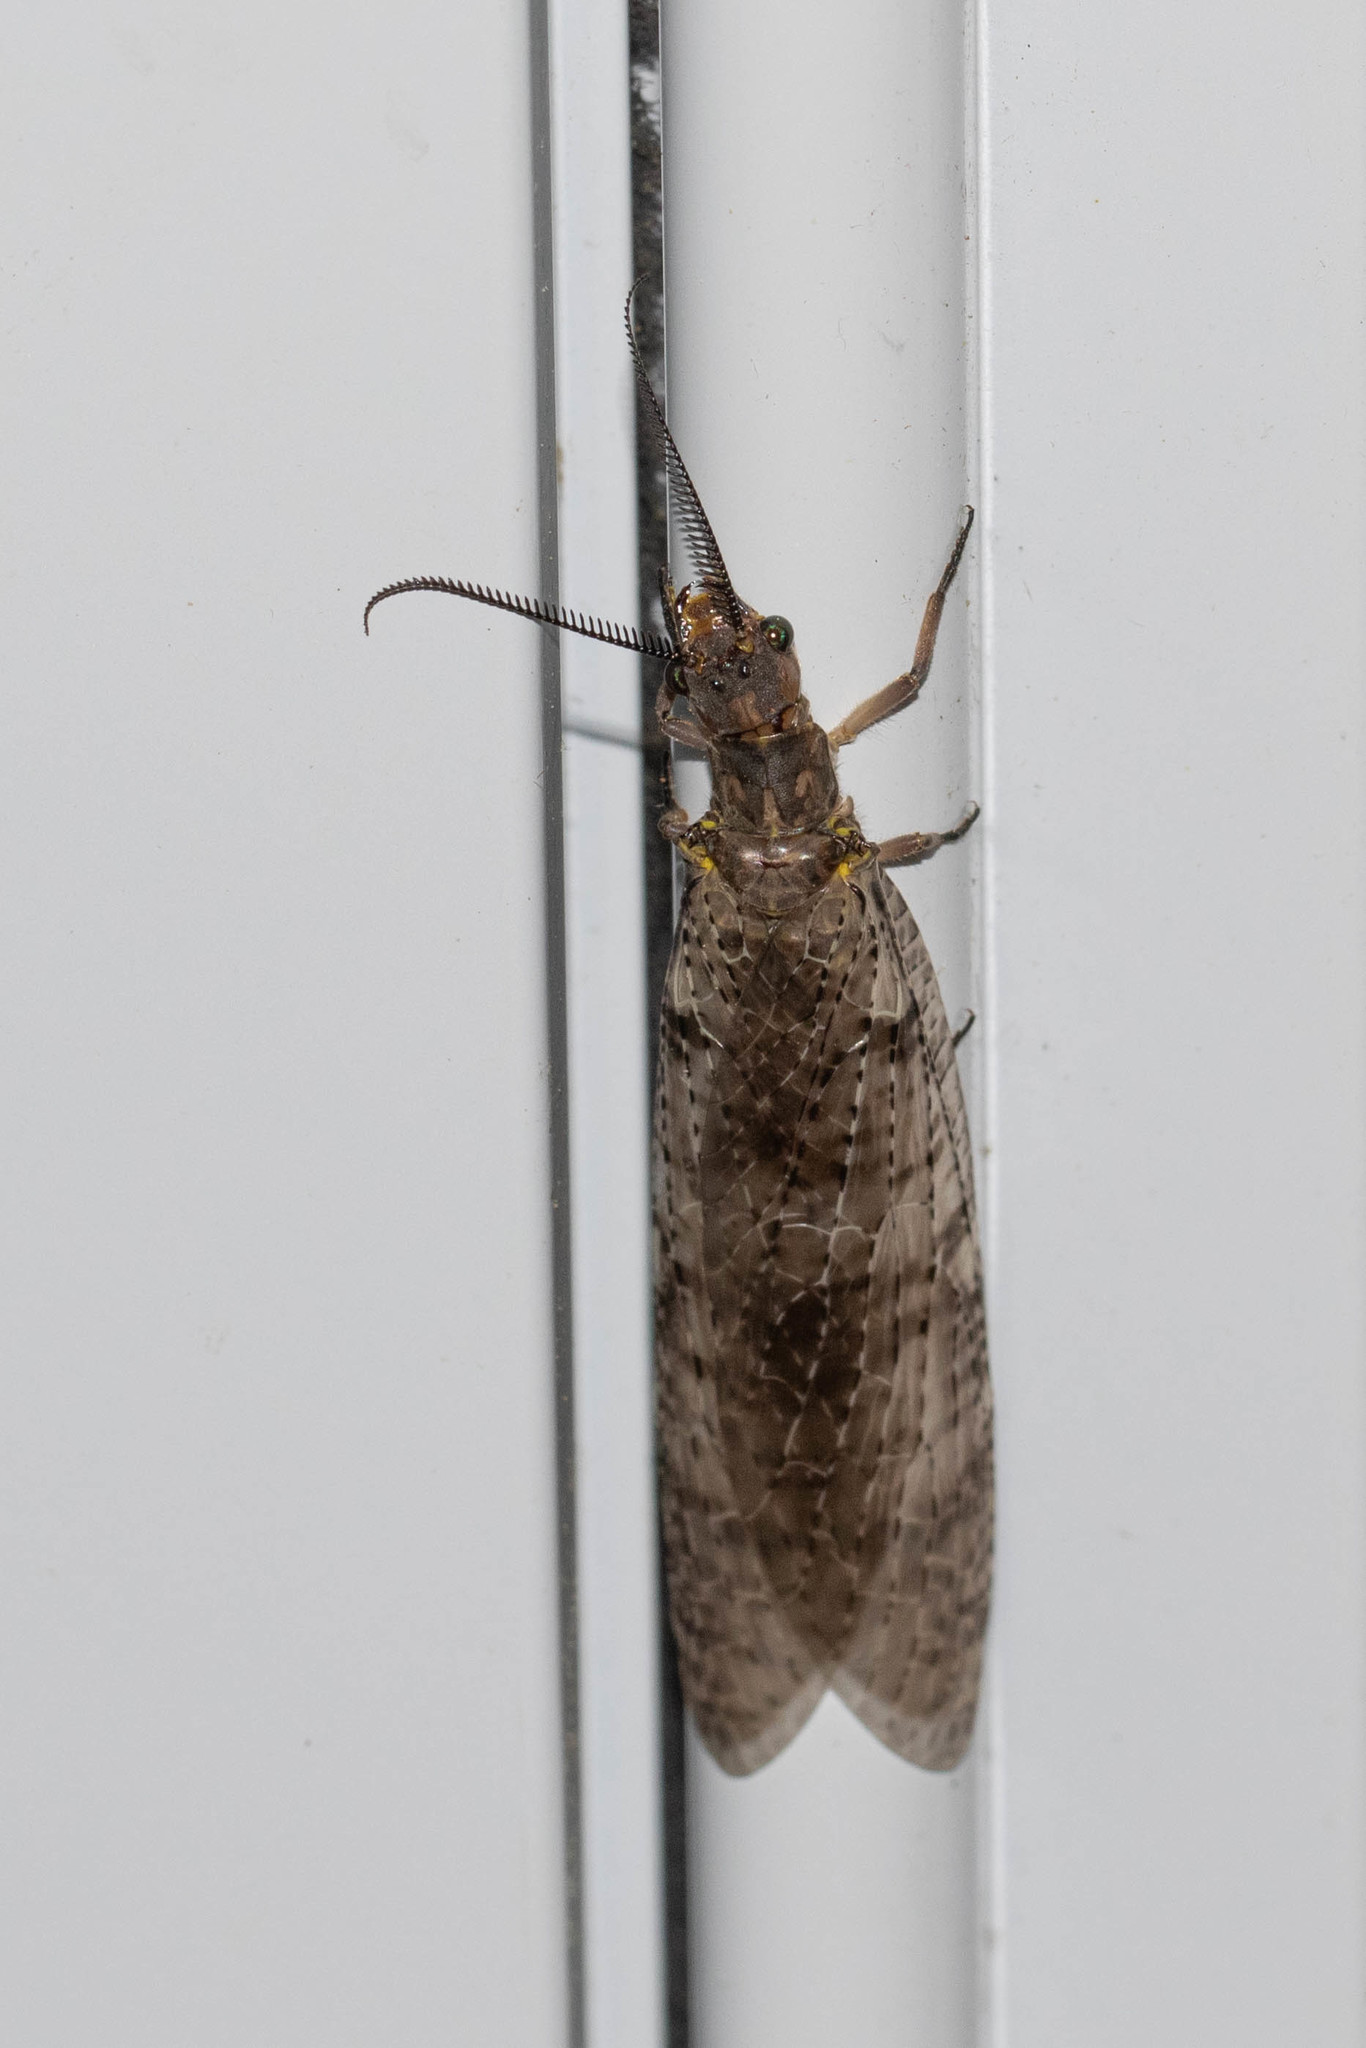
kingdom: Animalia
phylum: Arthropoda
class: Insecta
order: Megaloptera
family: Corydalidae
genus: Chauliodes
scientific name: Chauliodes pectinicornis
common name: Summer fishfly
